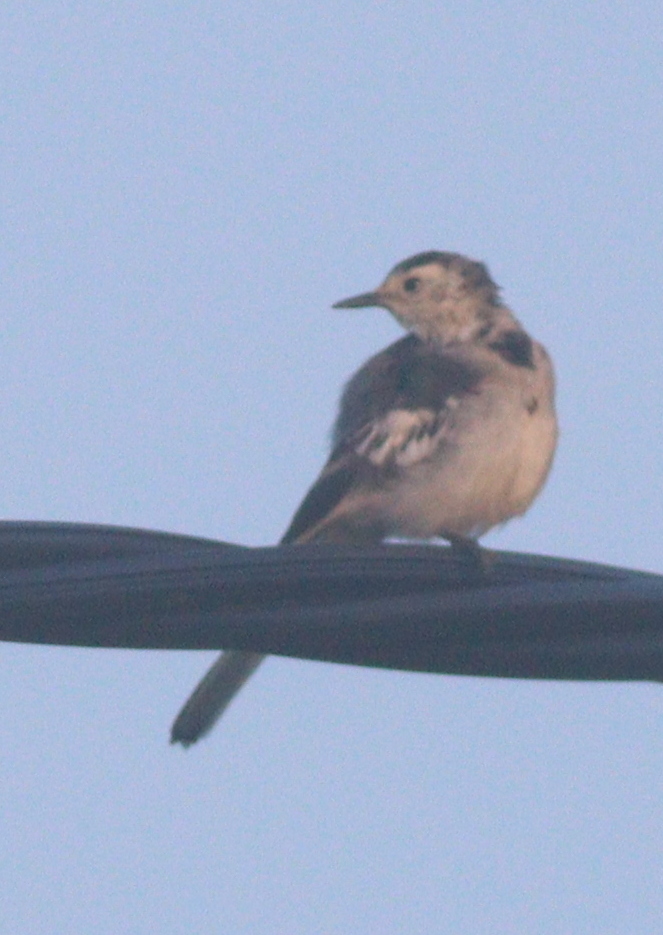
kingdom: Animalia
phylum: Chordata
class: Aves
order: Passeriformes
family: Motacillidae
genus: Motacilla
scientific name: Motacilla alba
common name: White wagtail
